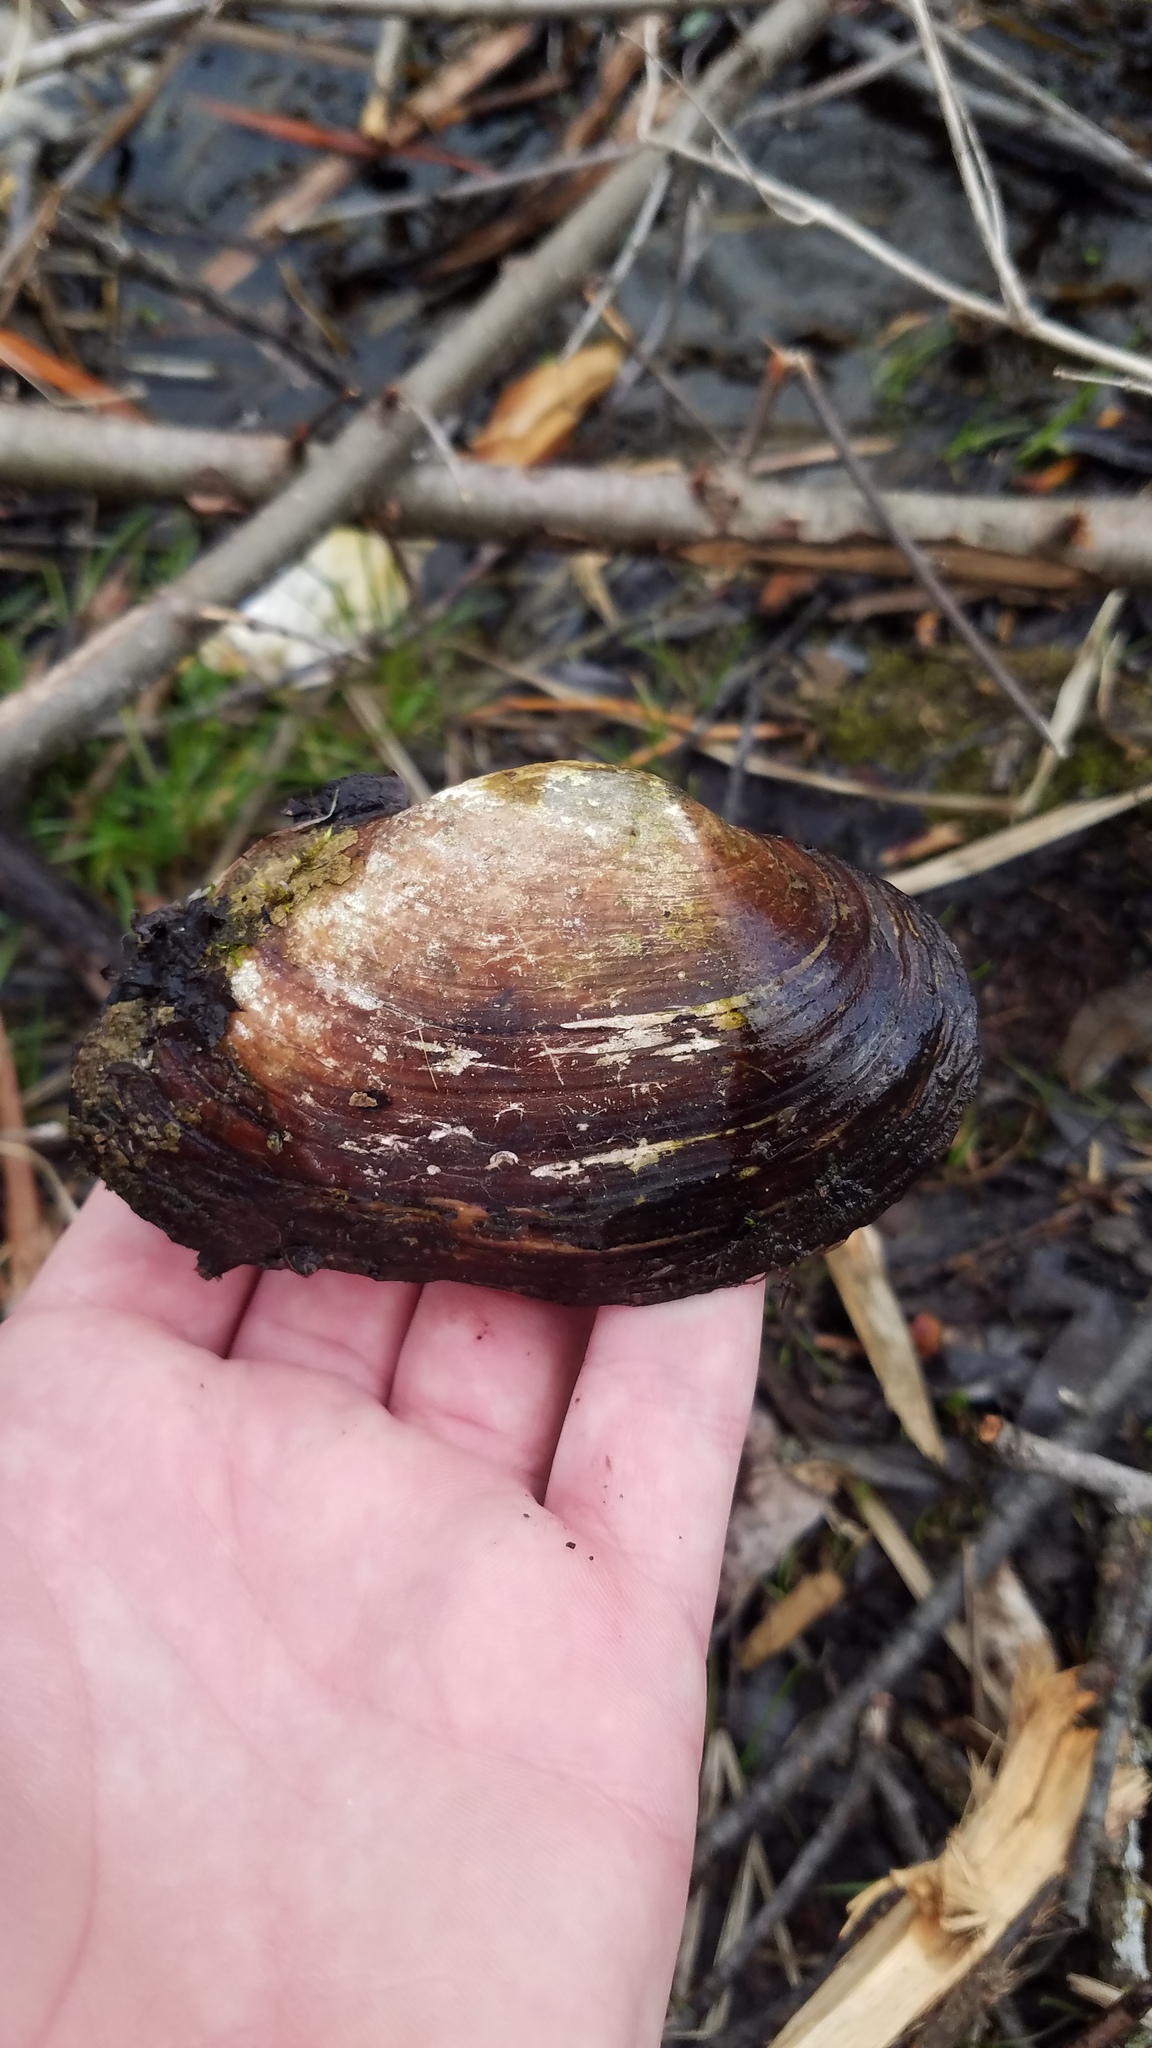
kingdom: Animalia
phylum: Mollusca
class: Bivalvia
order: Unionida
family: Unionidae
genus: Strophitus
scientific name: Strophitus undulatus
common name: Creeper
